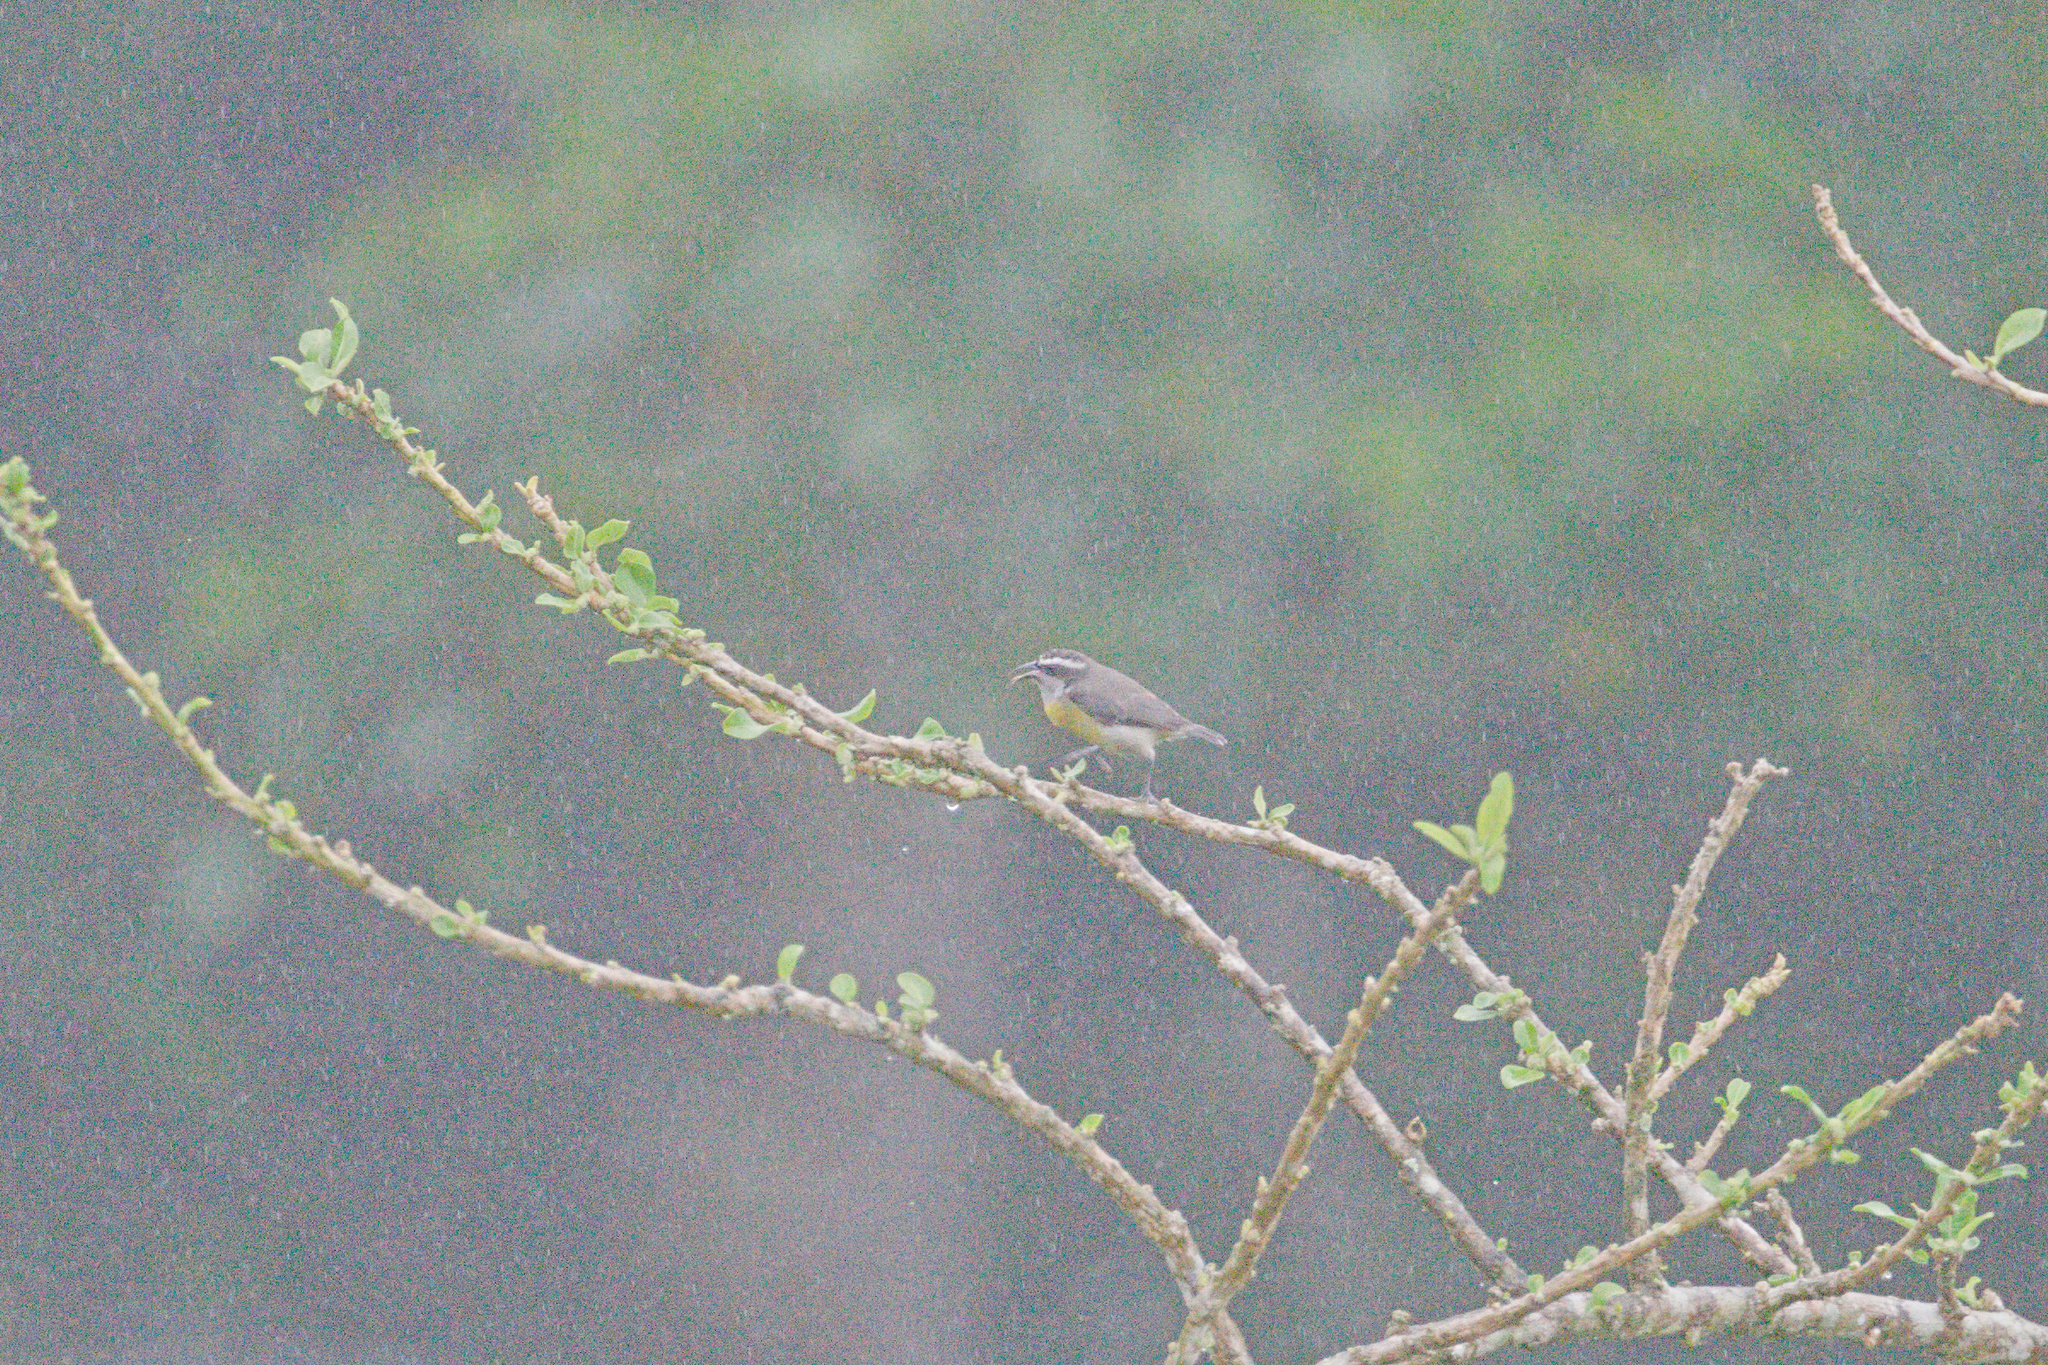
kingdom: Animalia
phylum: Chordata
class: Aves
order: Passeriformes
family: Thraupidae
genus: Coereba
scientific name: Coereba flaveola
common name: Bananaquit
